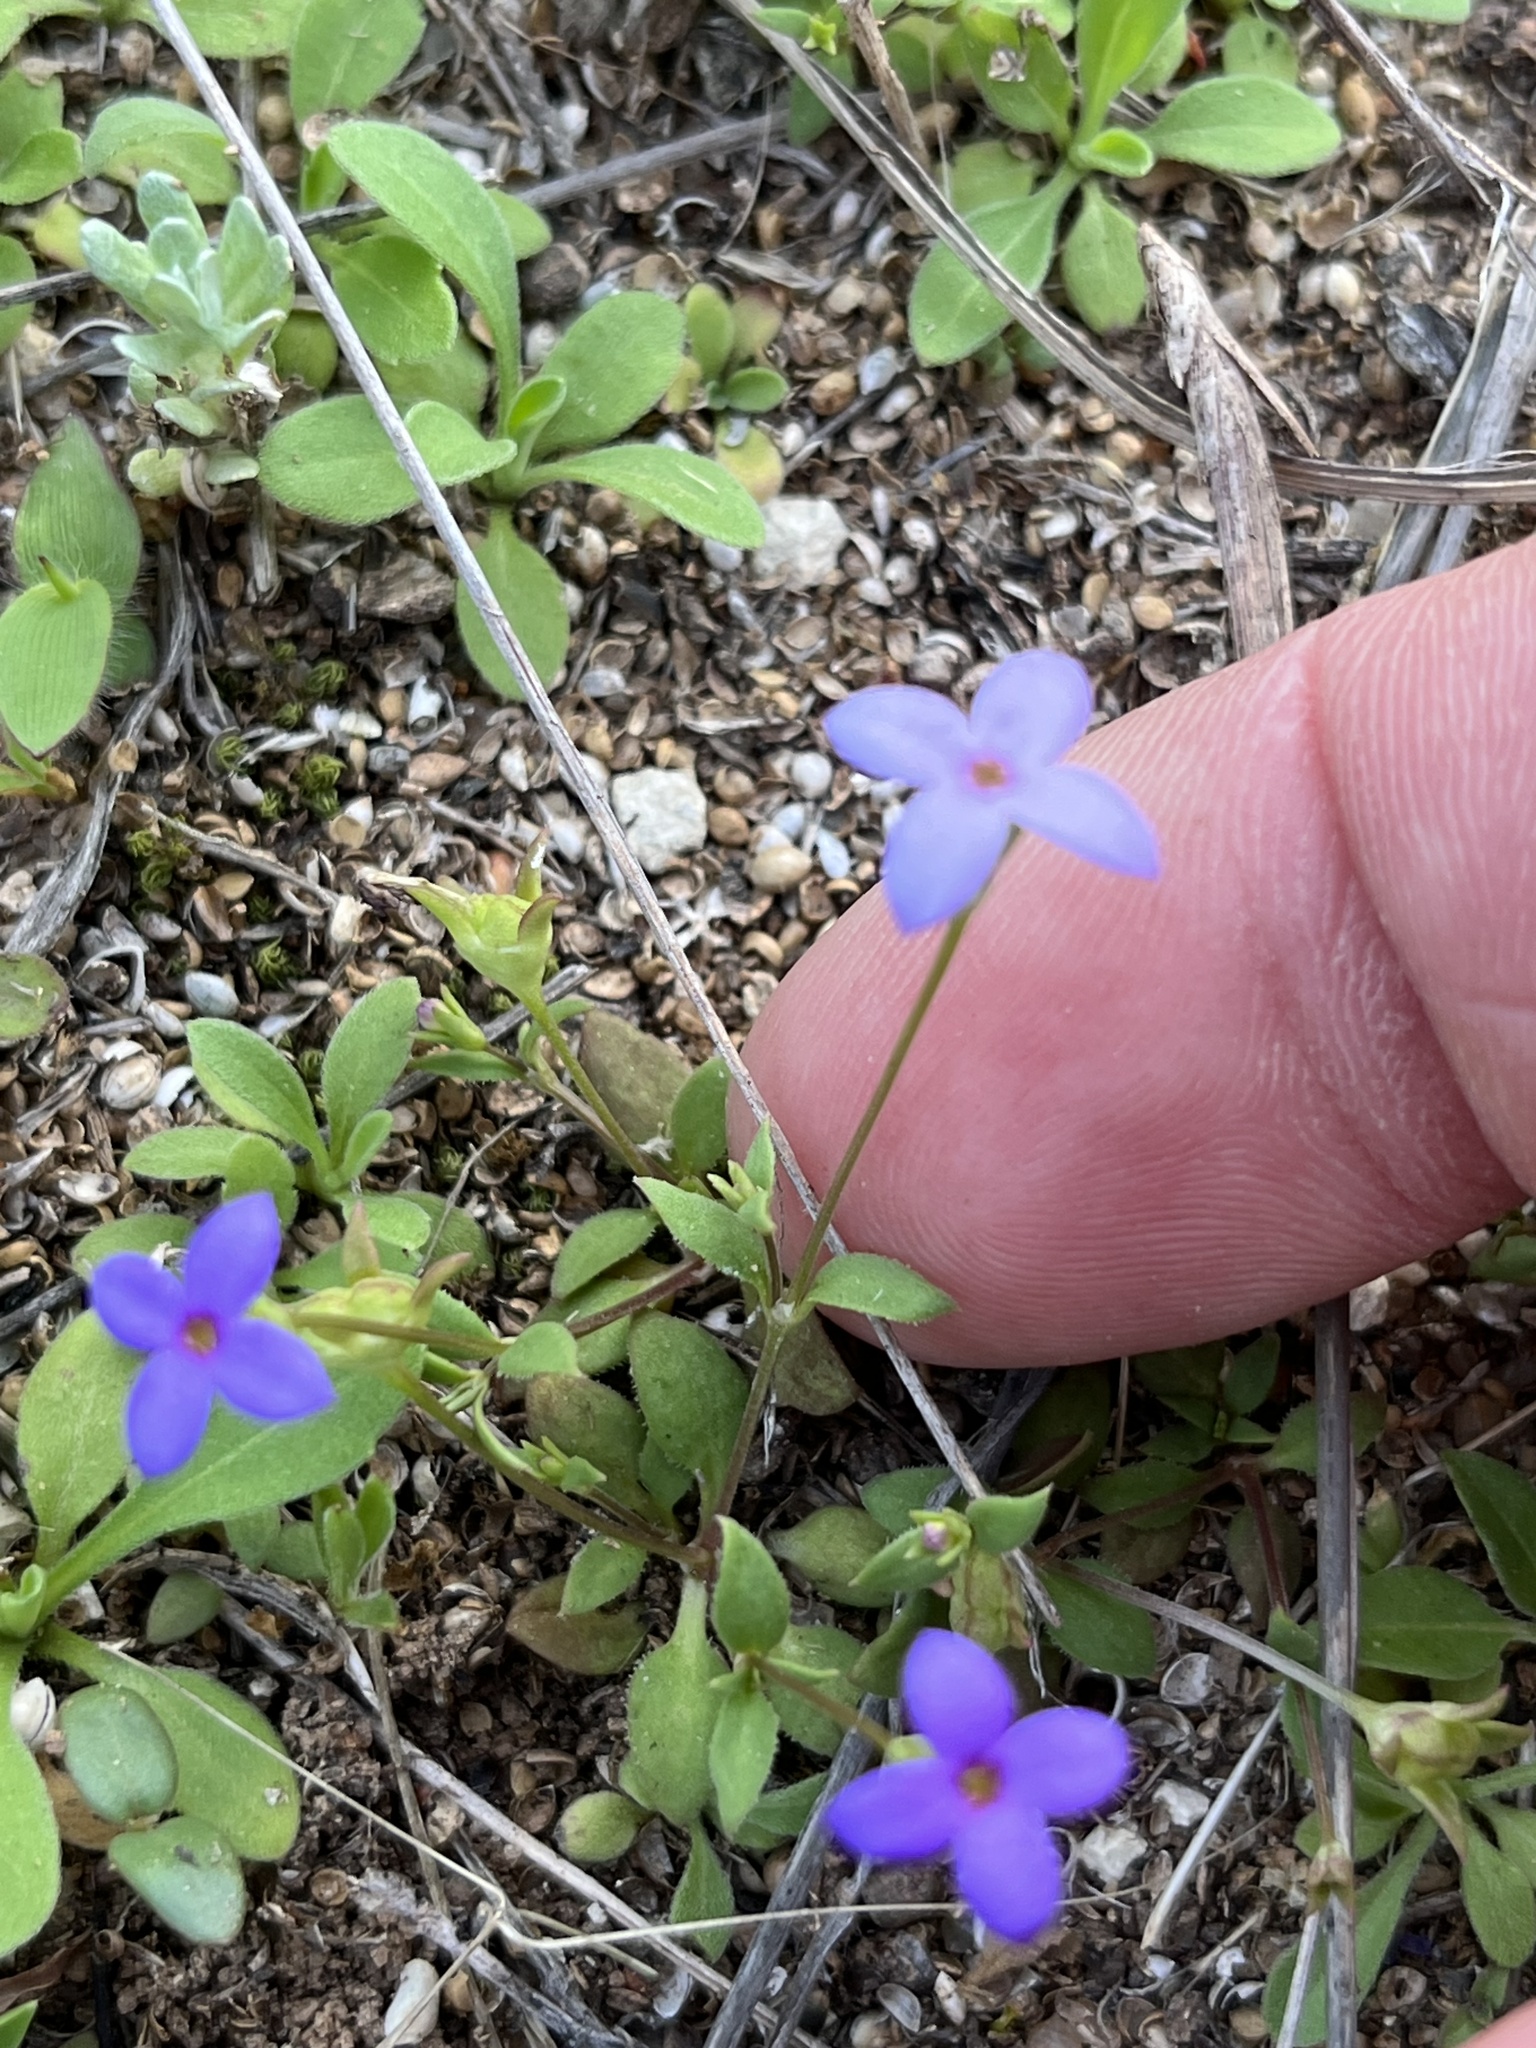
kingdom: Plantae
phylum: Tracheophyta
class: Magnoliopsida
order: Gentianales
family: Rubiaceae
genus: Houstonia
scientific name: Houstonia pusilla
